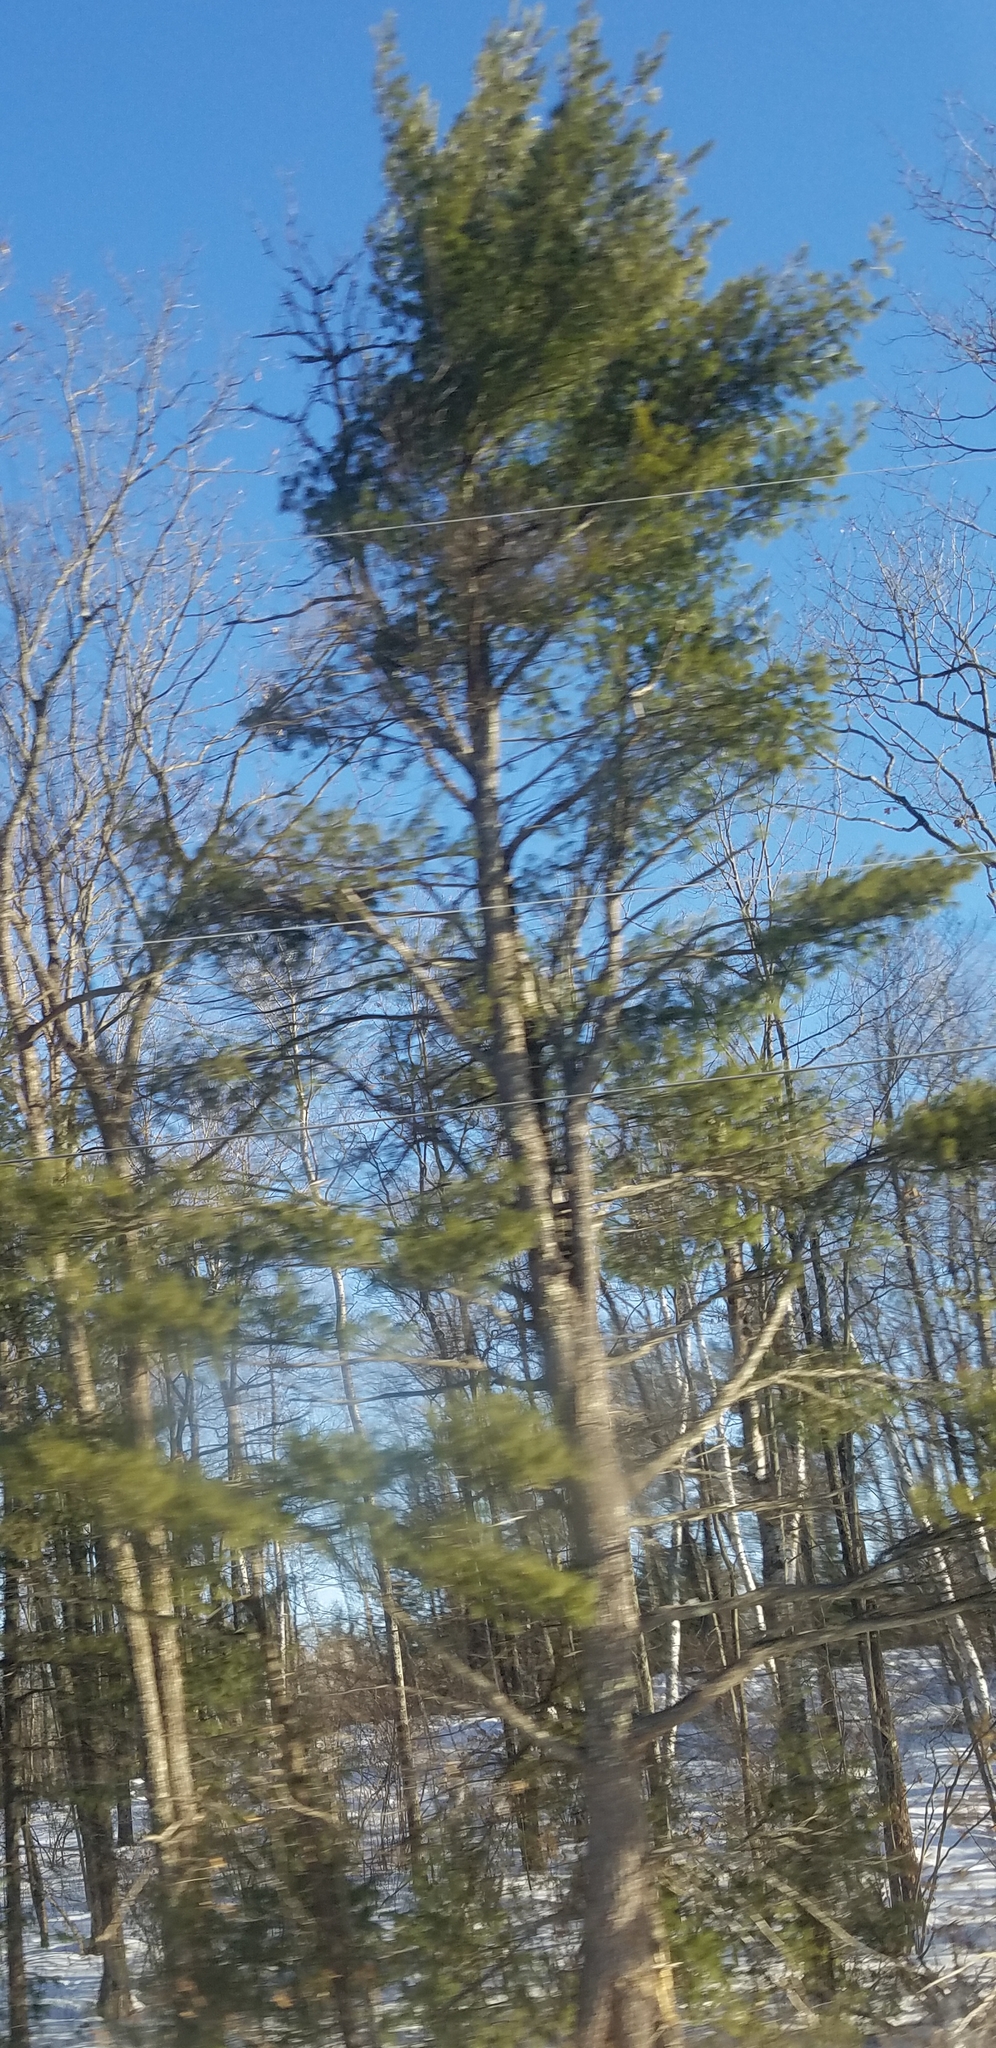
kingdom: Plantae
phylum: Tracheophyta
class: Pinopsida
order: Pinales
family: Pinaceae
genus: Pinus
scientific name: Pinus strobus
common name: Weymouth pine
